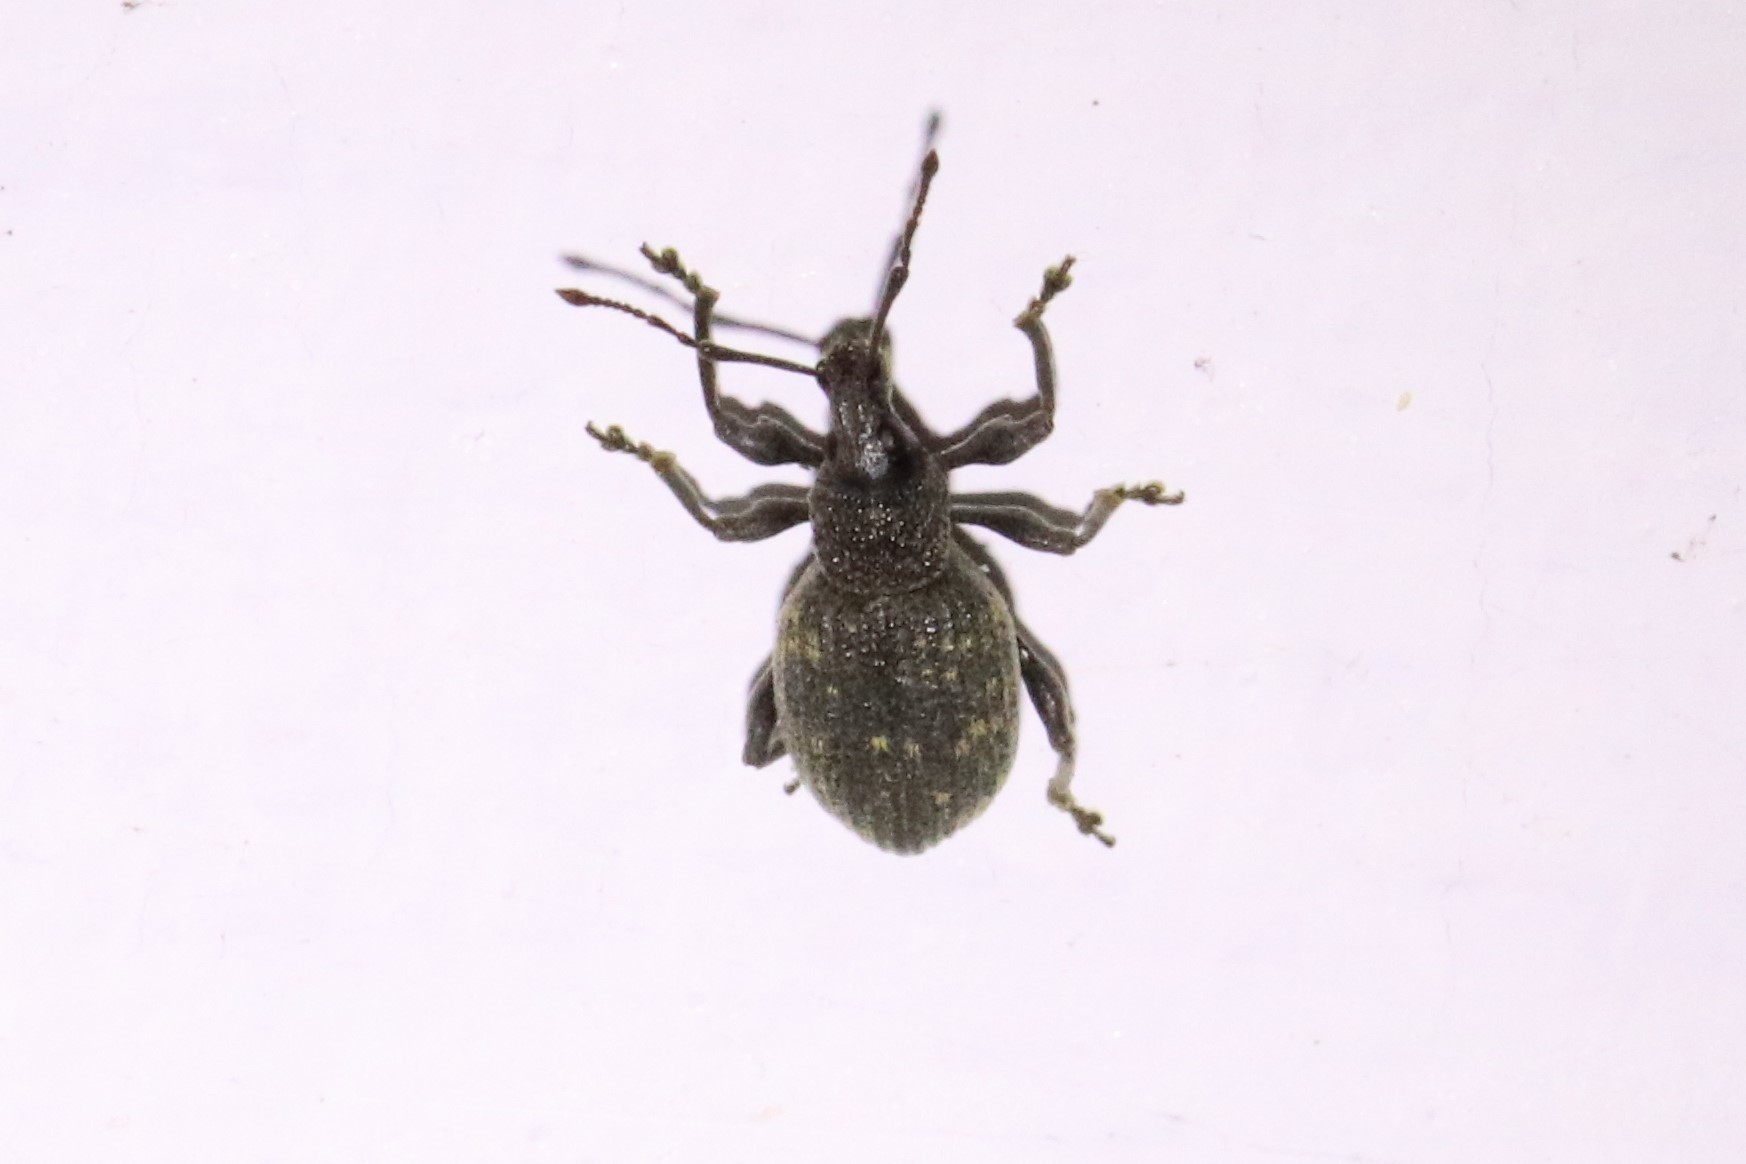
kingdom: Animalia
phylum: Arthropoda
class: Insecta
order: Coleoptera
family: Curculionidae
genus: Otiorhynchus
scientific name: Otiorhynchus sulcatus
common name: Black vine weevil
